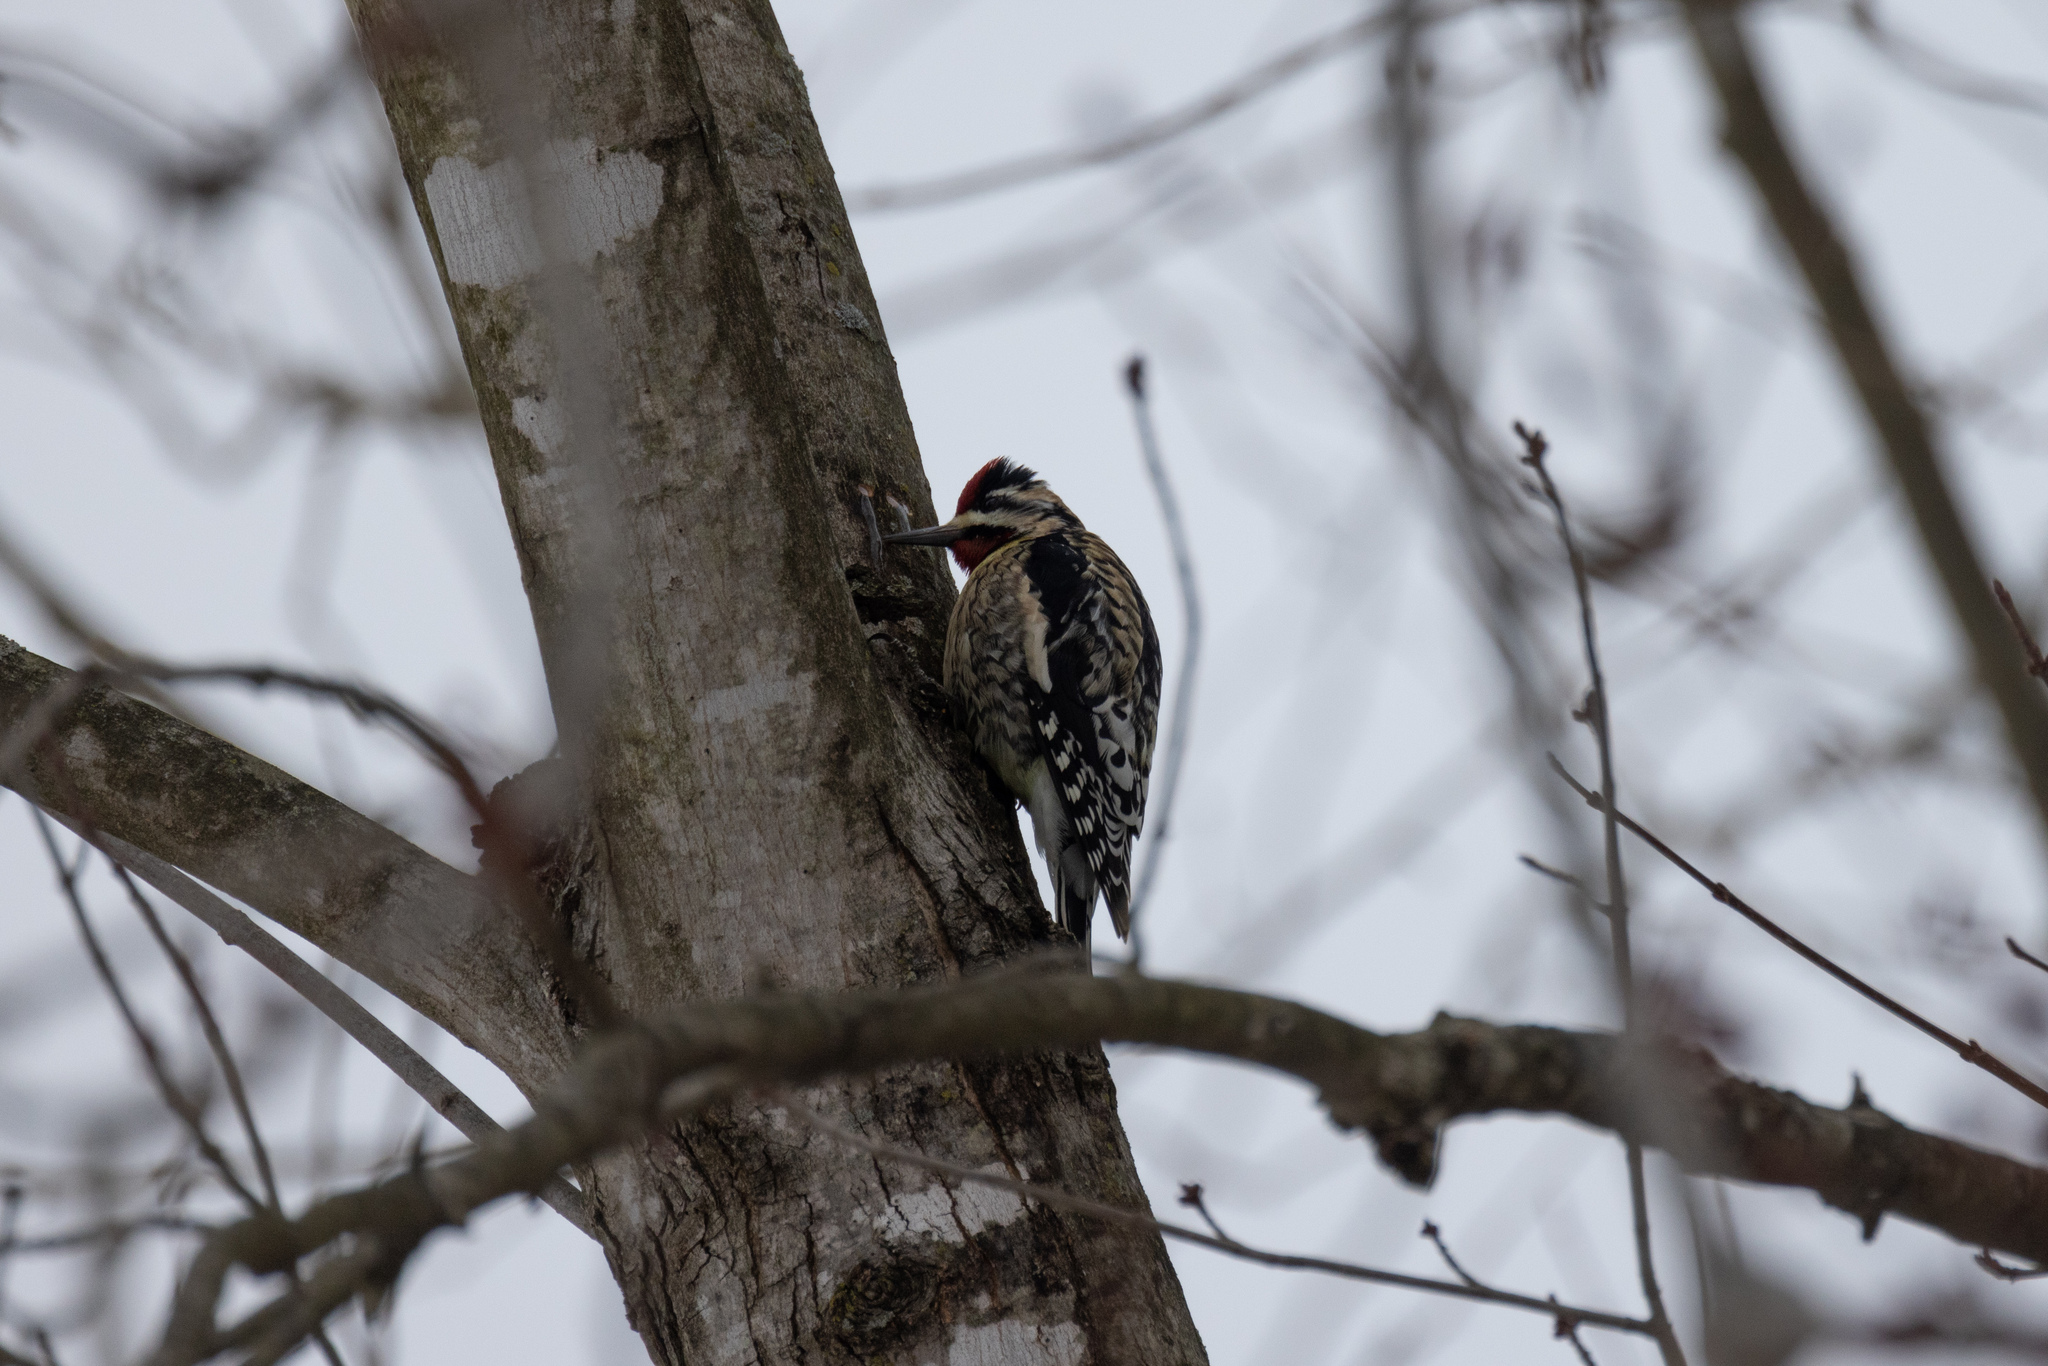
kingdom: Animalia
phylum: Chordata
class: Aves
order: Piciformes
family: Picidae
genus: Sphyrapicus
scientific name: Sphyrapicus varius
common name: Yellow-bellied sapsucker
